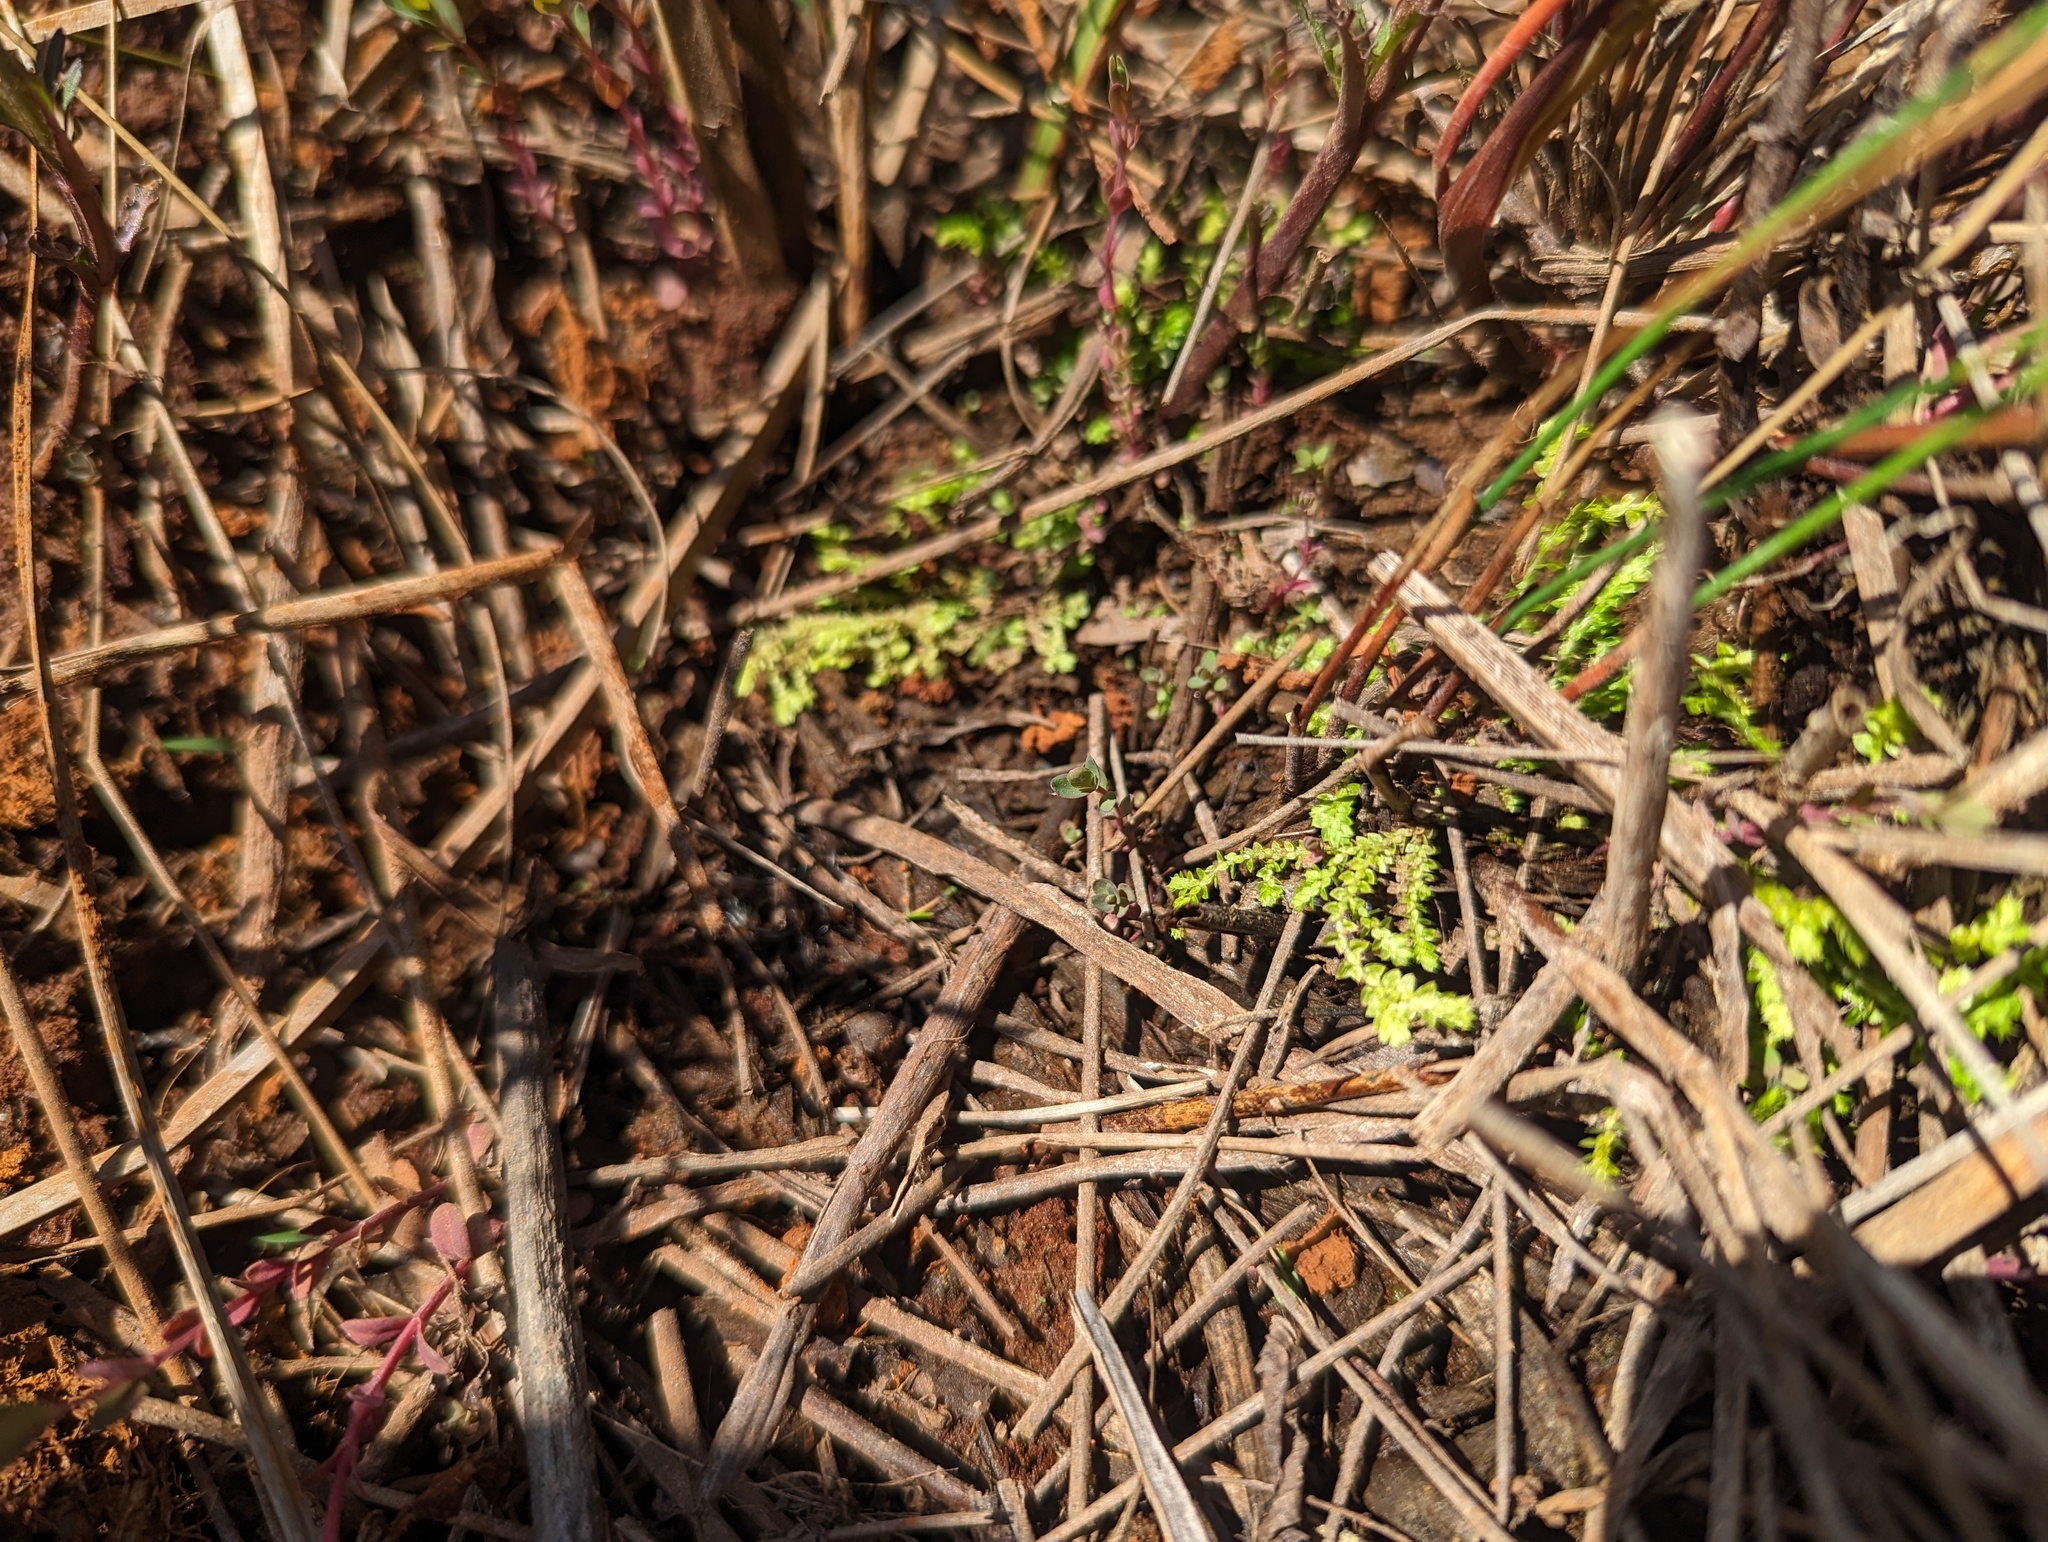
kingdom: Plantae
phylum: Tracheophyta
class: Lycopodiopsida
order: Selaginellales
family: Selaginellaceae
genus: Selaginella
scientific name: Selaginella eclipes
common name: Buck's meadow spikemoss
